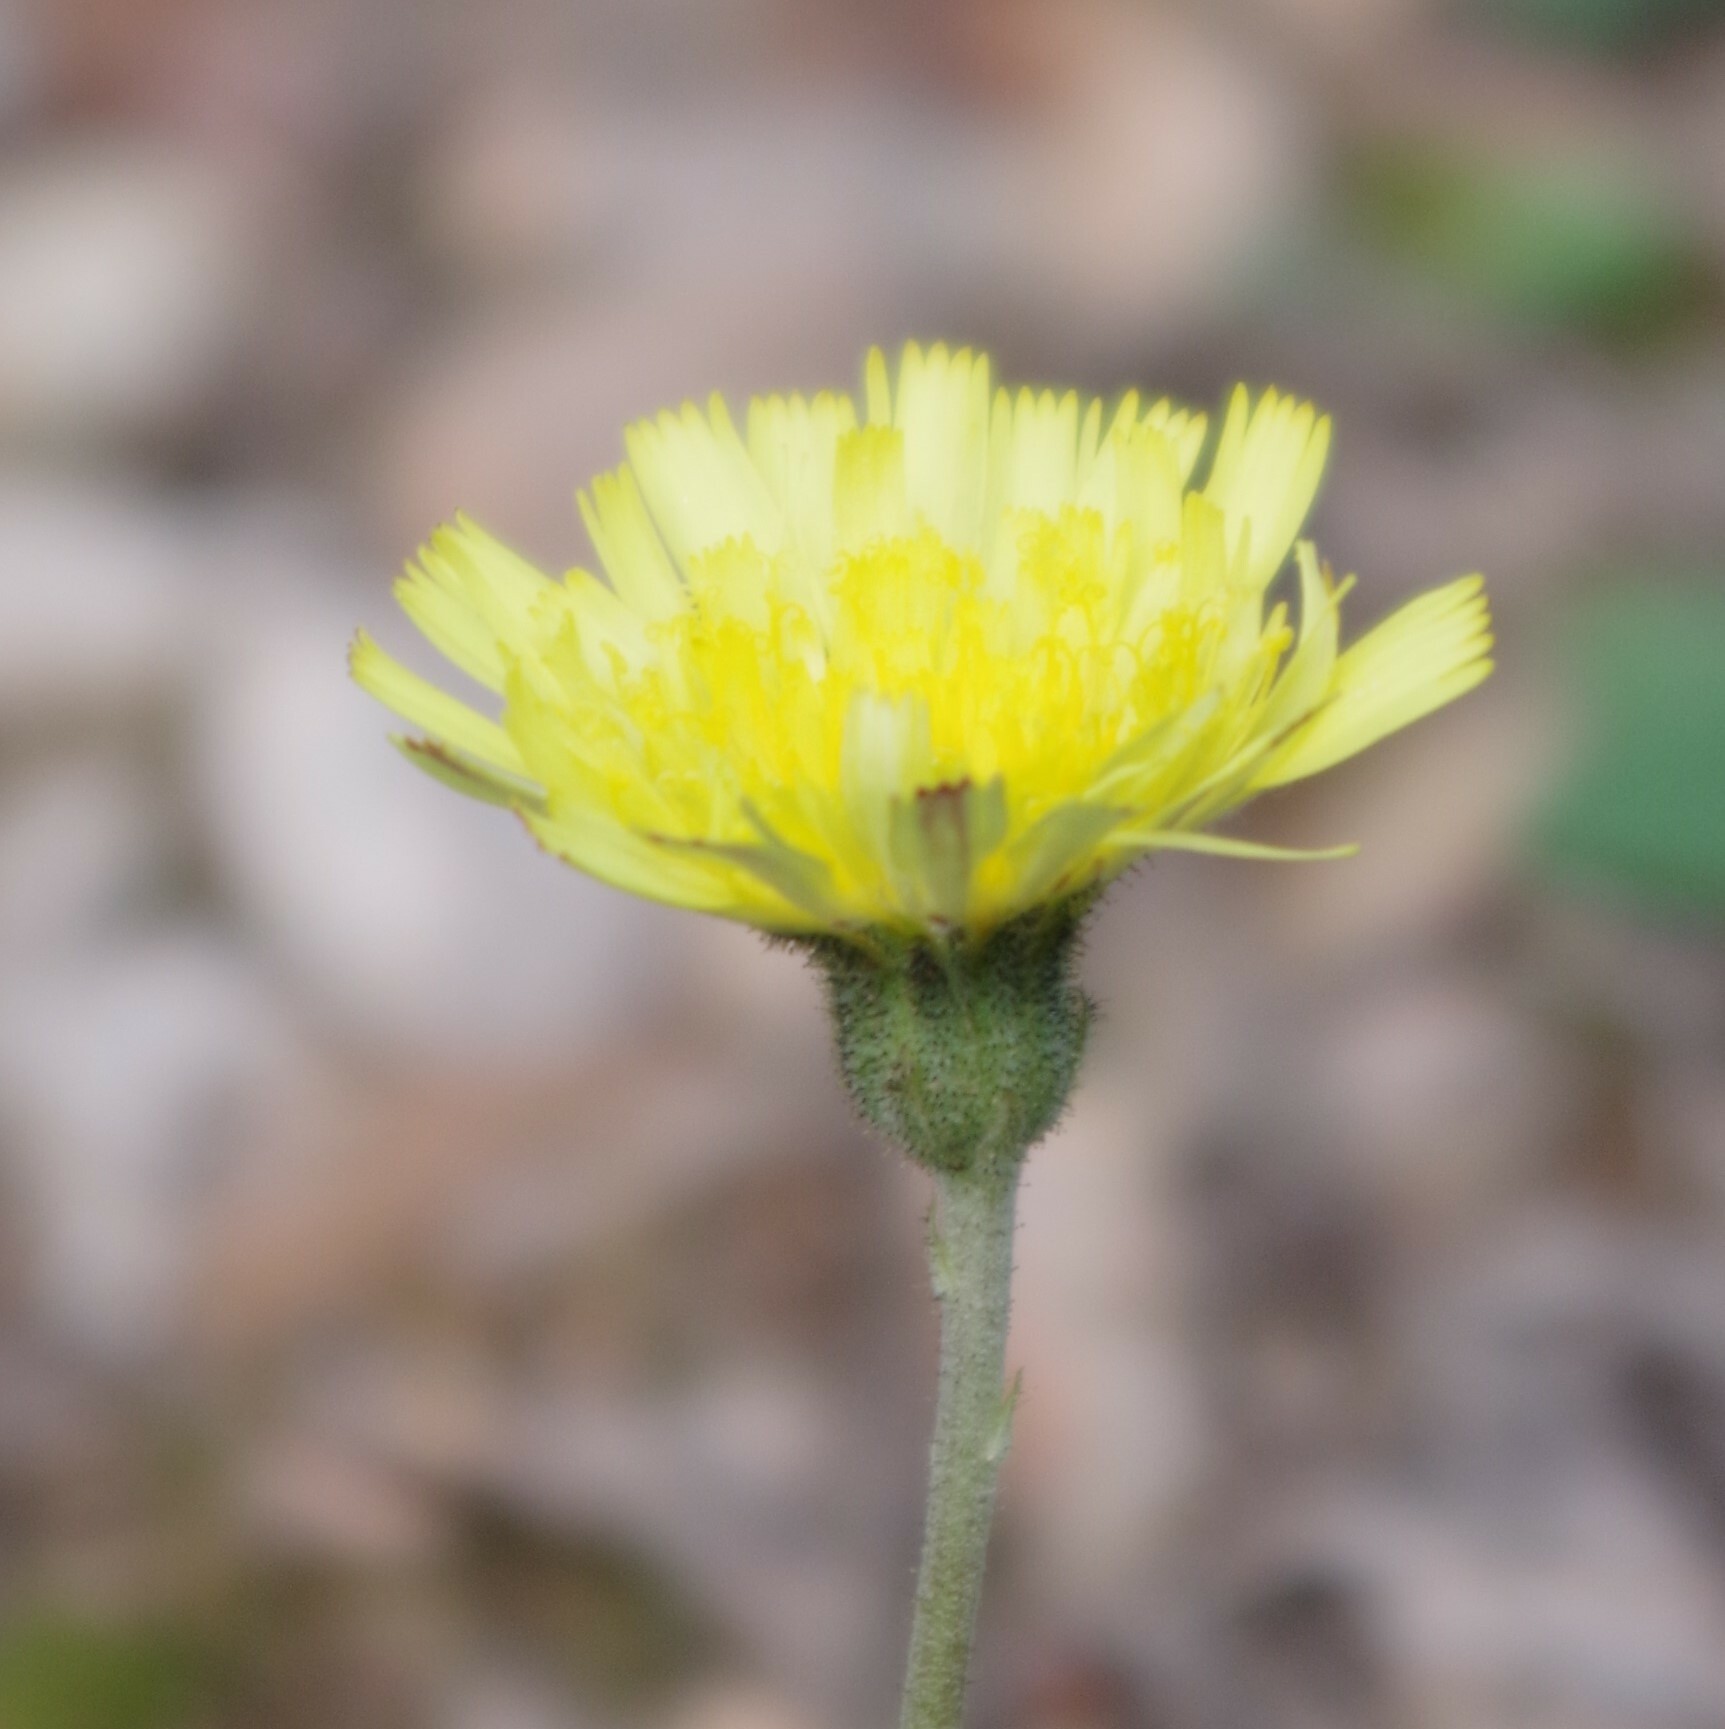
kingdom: Plantae
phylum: Tracheophyta
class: Magnoliopsida
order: Asterales
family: Asteraceae
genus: Pilosella
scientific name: Pilosella officinarum
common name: Mouse-ear hawkweed
